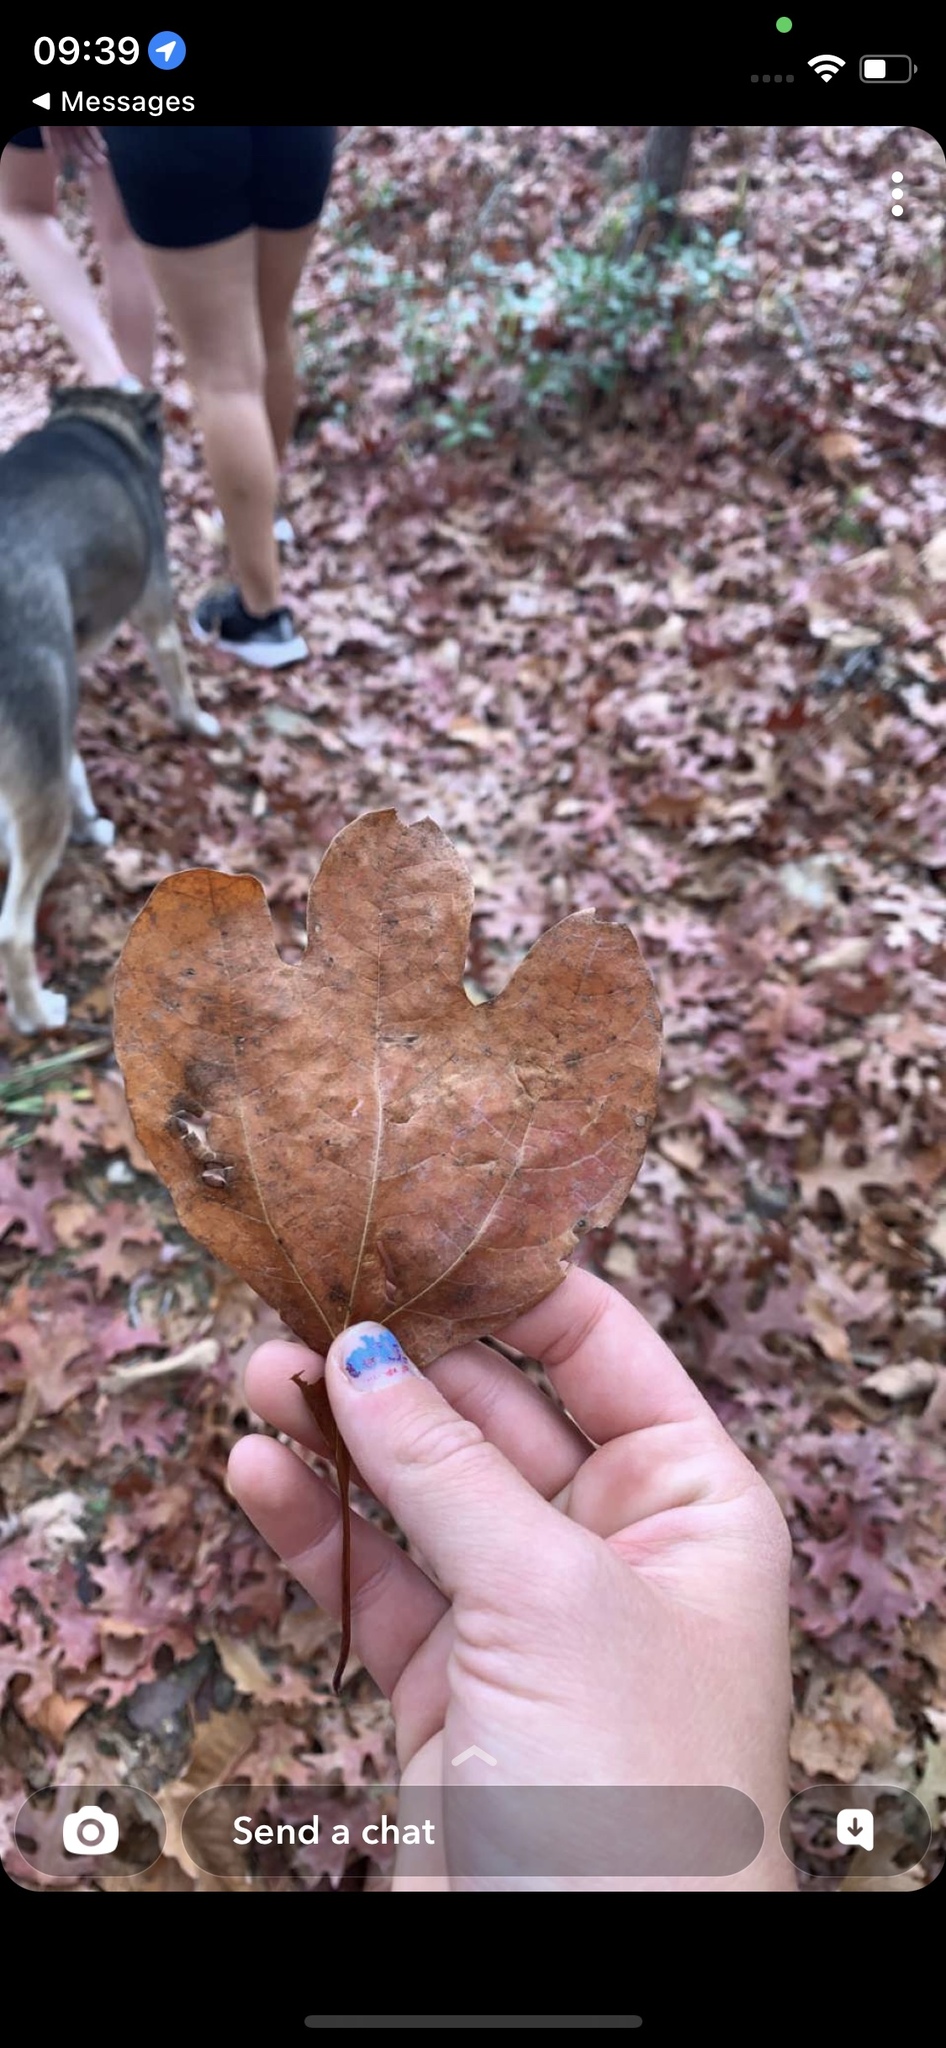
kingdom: Plantae
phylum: Tracheophyta
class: Magnoliopsida
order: Laurales
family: Lauraceae
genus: Sassafras
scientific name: Sassafras albidum
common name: Sassafras
